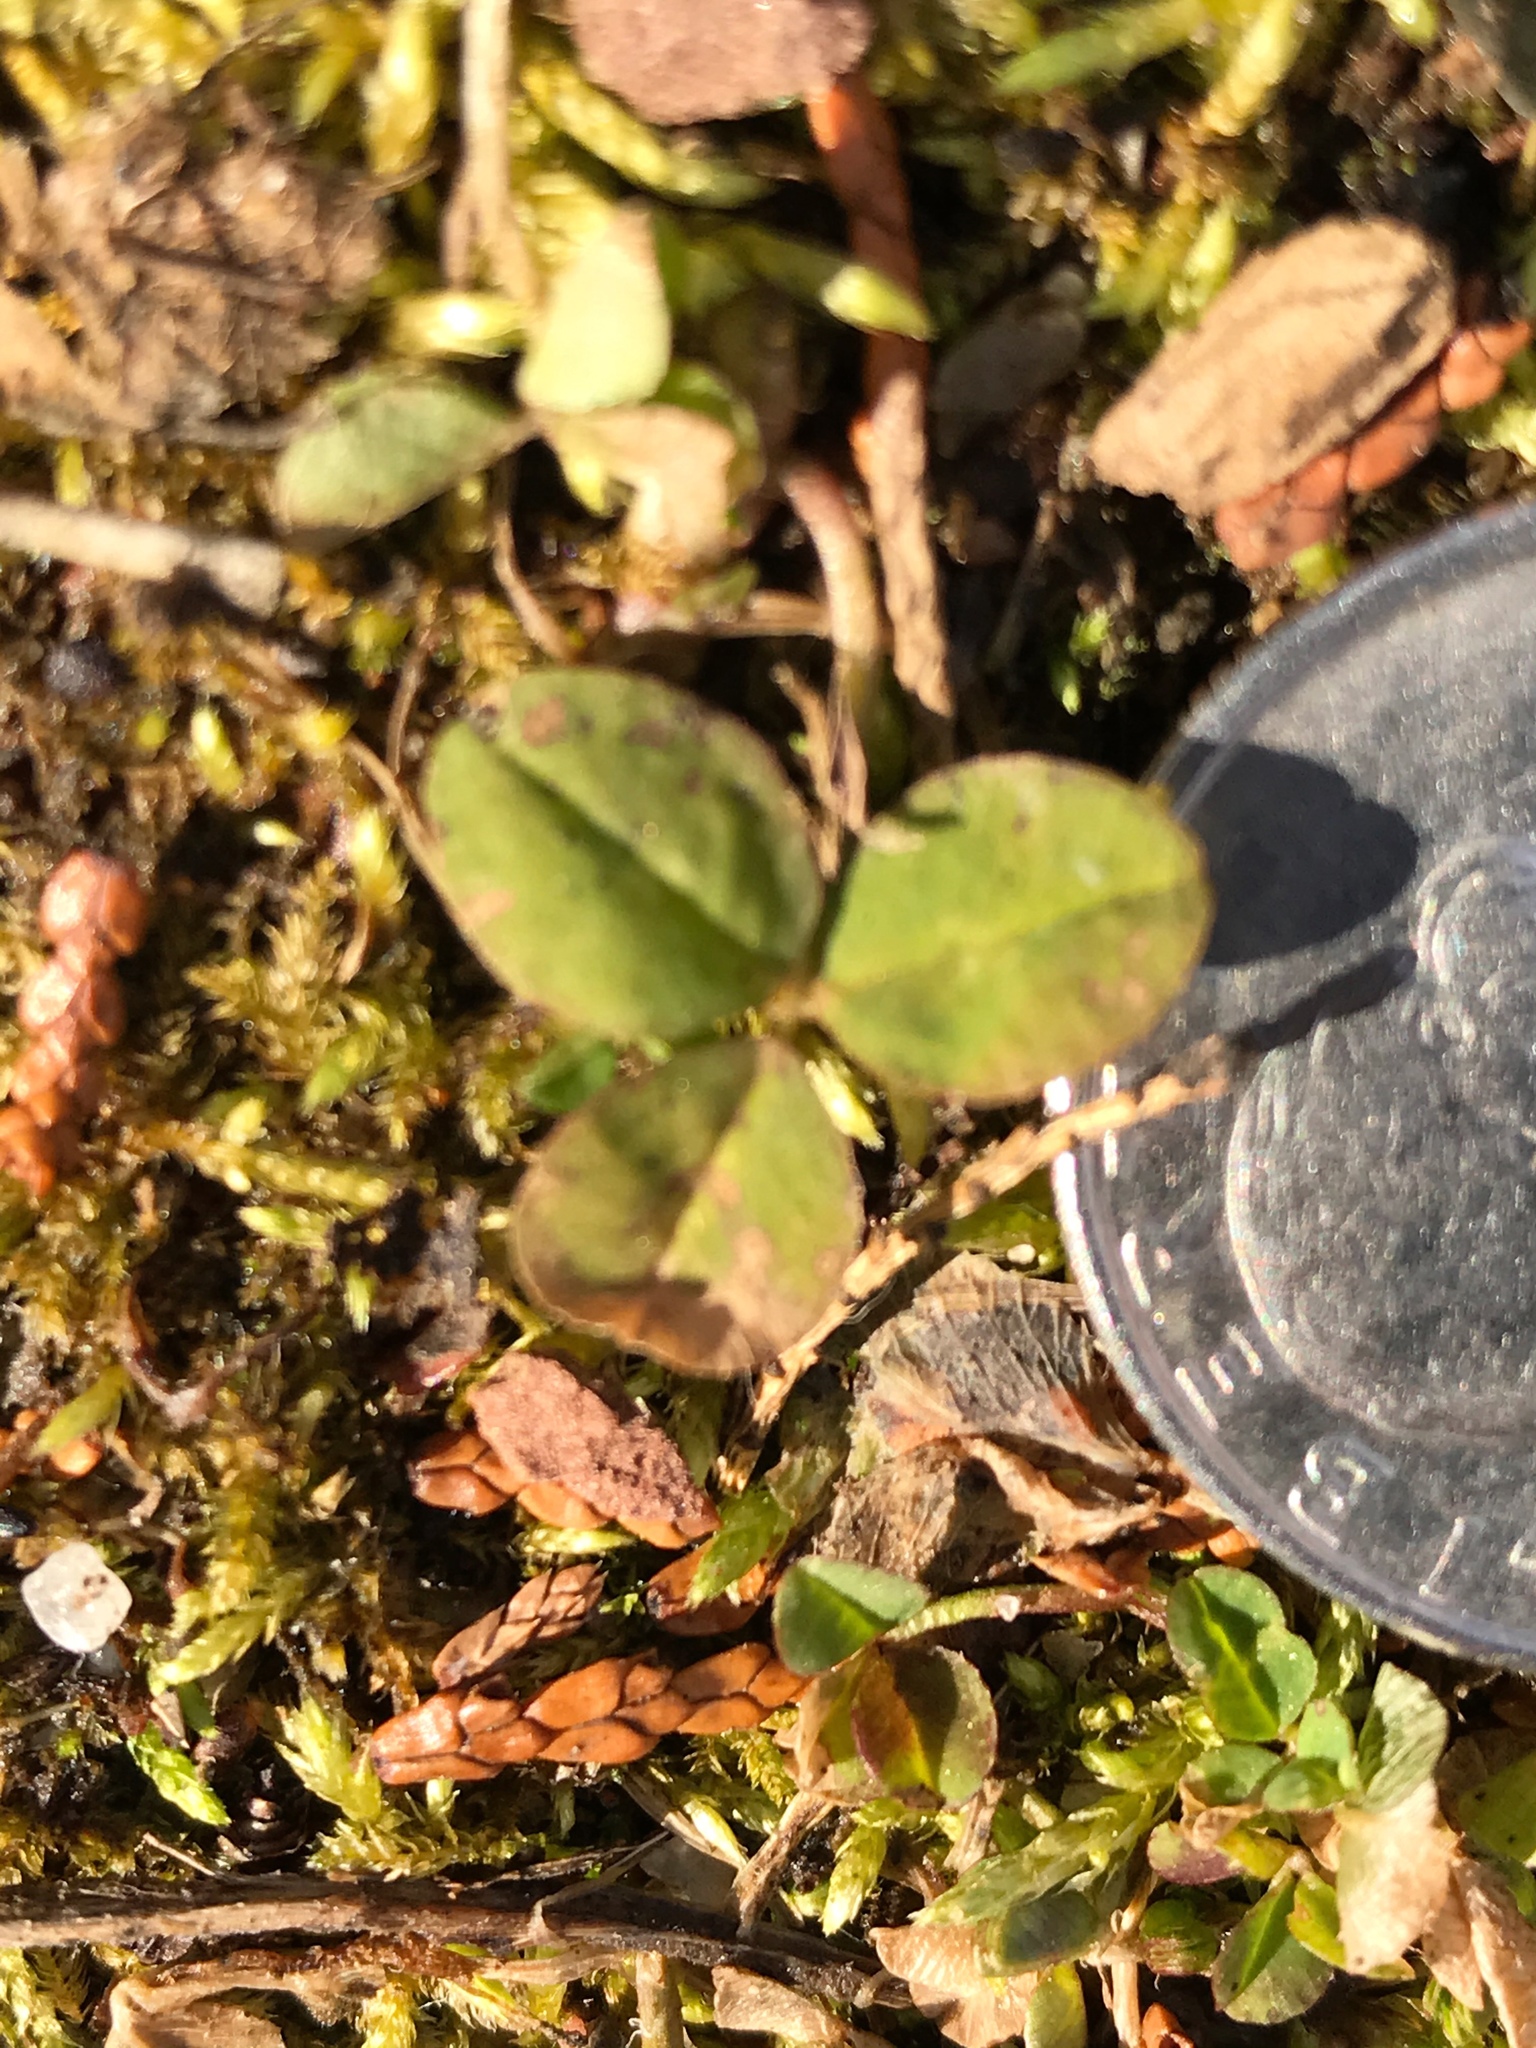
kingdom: Plantae
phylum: Tracheophyta
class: Magnoliopsida
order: Fabales
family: Fabaceae
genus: Trifolium
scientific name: Trifolium repens
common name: White clover
